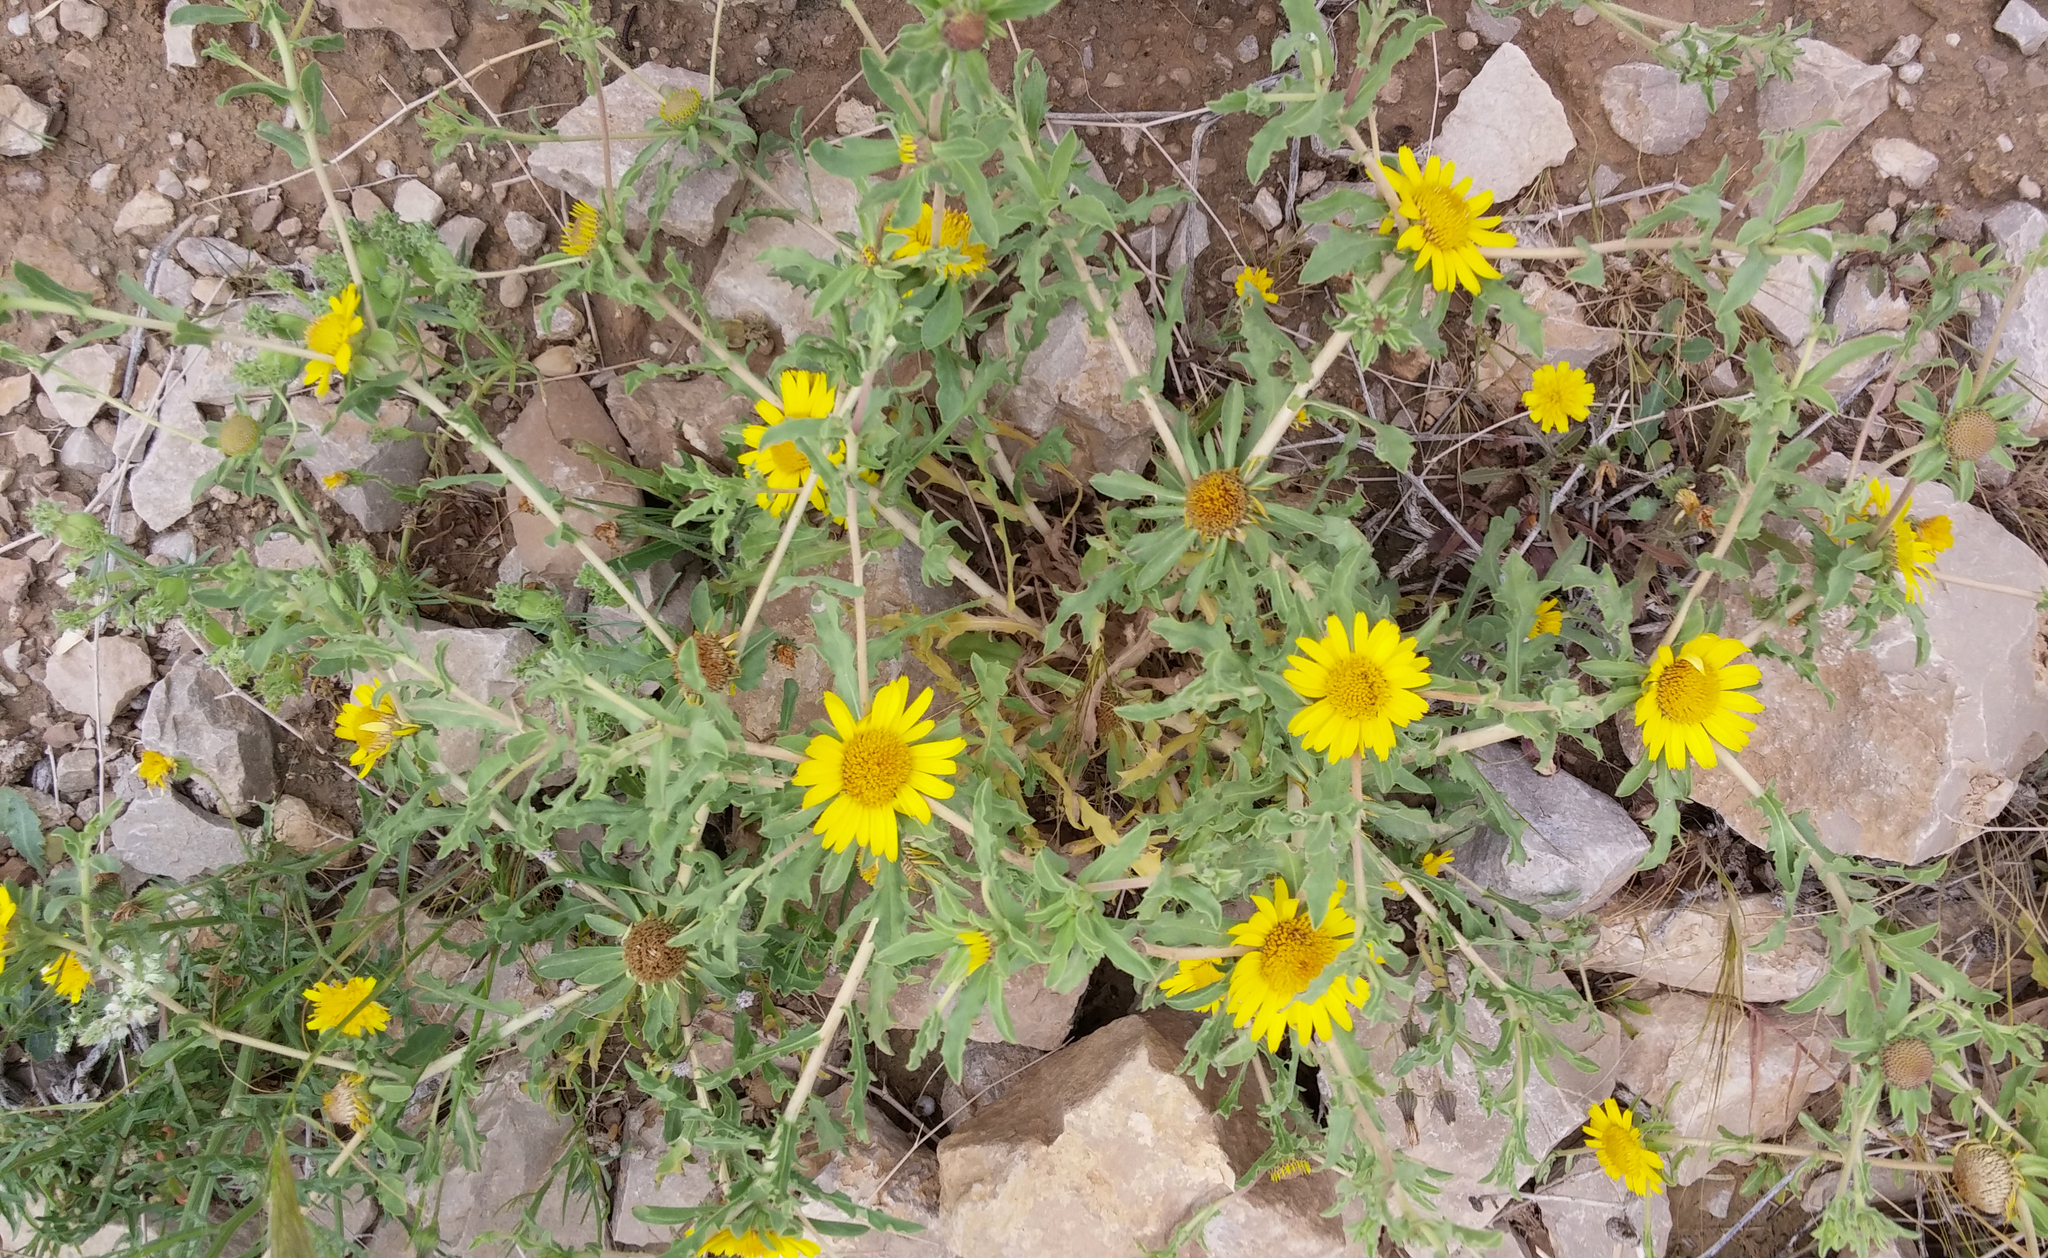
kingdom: Plantae
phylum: Tracheophyta
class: Magnoliopsida
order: Asterales
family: Asteraceae
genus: Asteriscus
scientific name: Asteriscus graveolens
